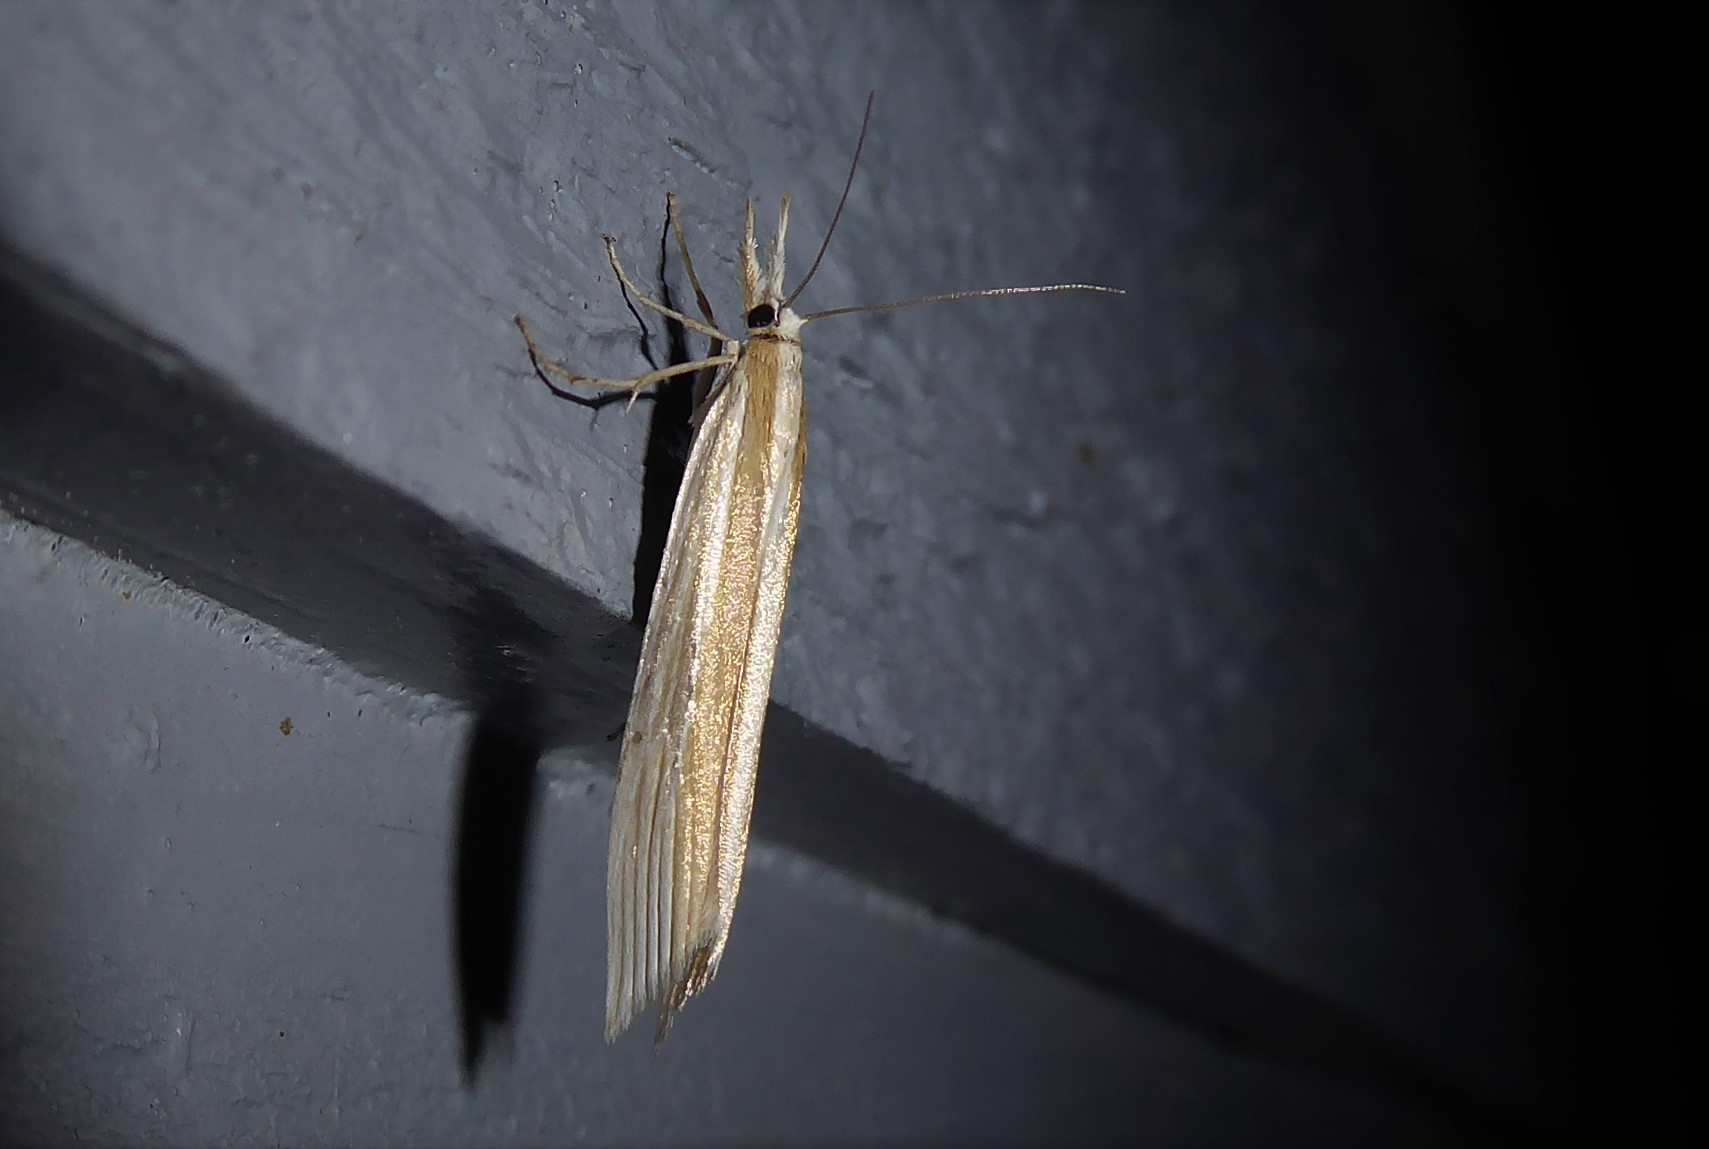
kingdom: Animalia
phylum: Arthropoda
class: Insecta
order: Lepidoptera
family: Crambidae
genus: Orocrambus
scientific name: Orocrambus angustipennis
